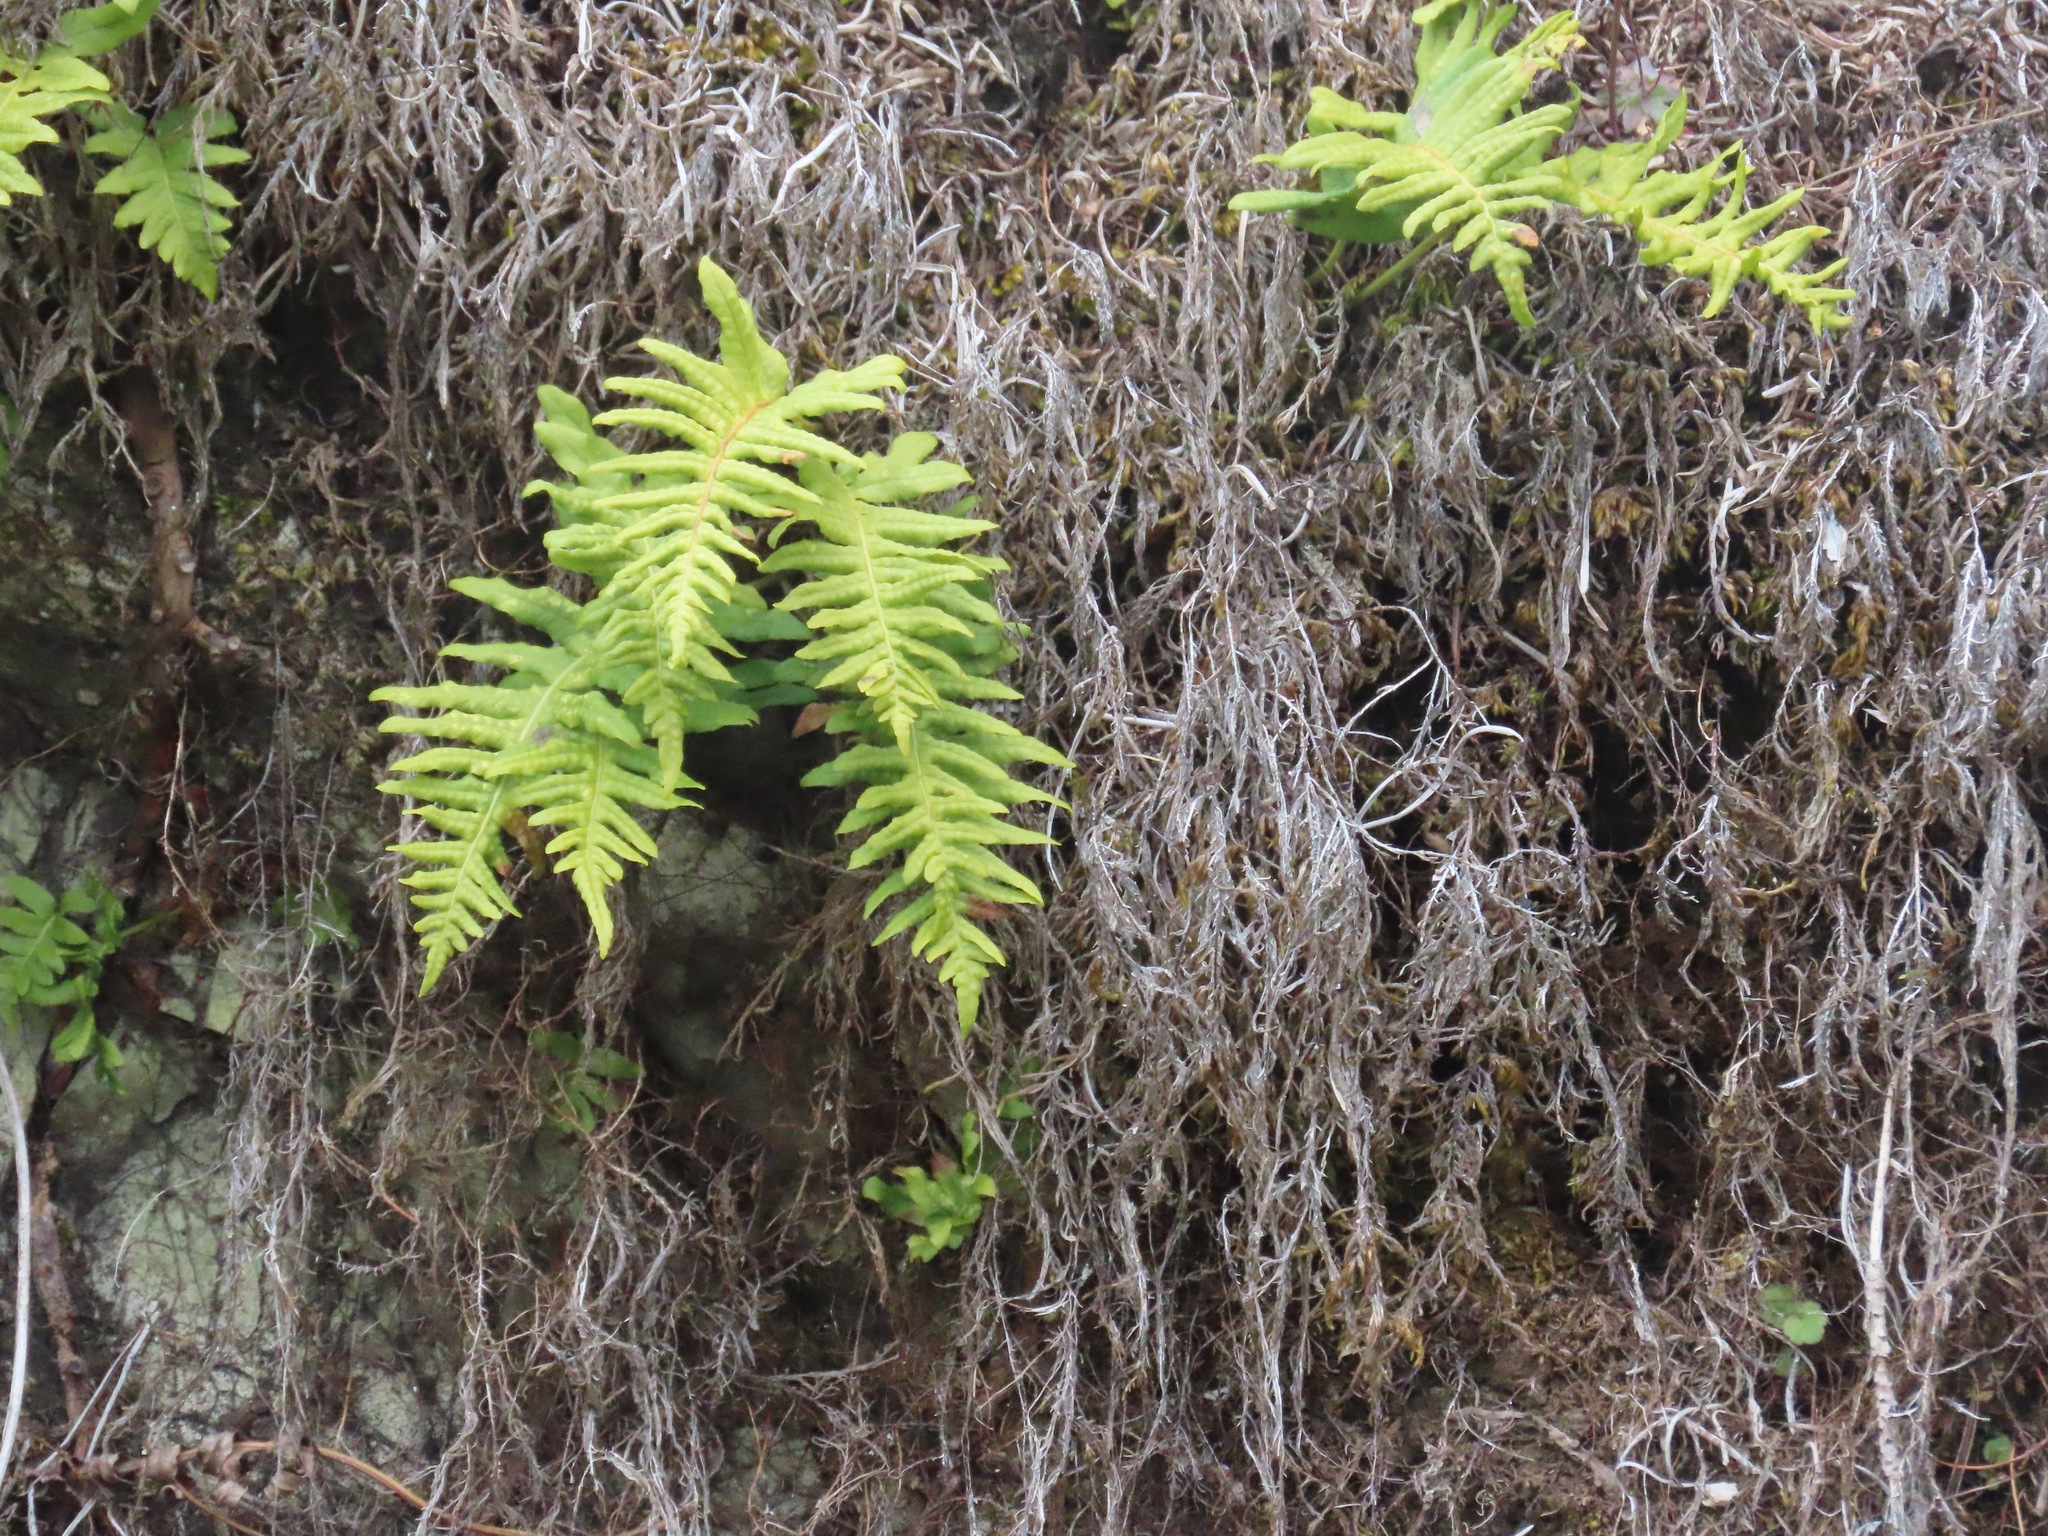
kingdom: Plantae
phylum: Tracheophyta
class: Polypodiopsida
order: Polypodiales
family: Polypodiaceae
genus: Polypodium
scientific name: Polypodium glycyrrhiza
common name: Licorice fern
